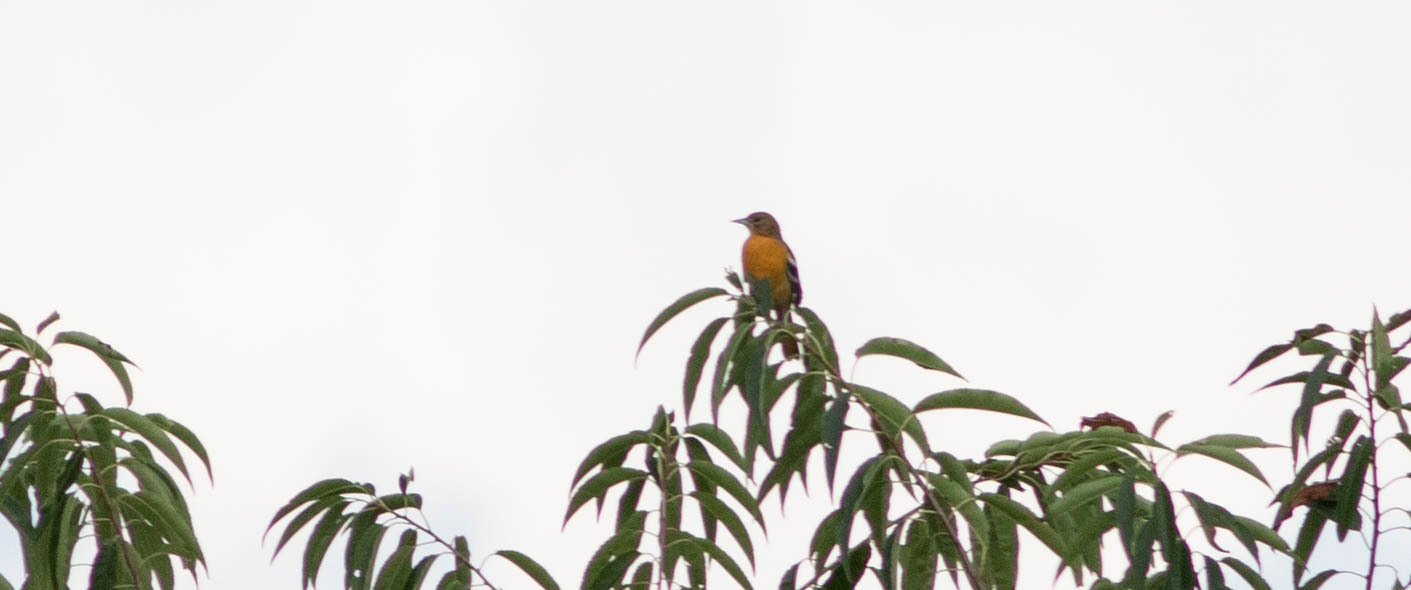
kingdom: Animalia
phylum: Chordata
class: Aves
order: Passeriformes
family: Icteridae
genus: Icterus
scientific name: Icterus galbula
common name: Baltimore oriole
